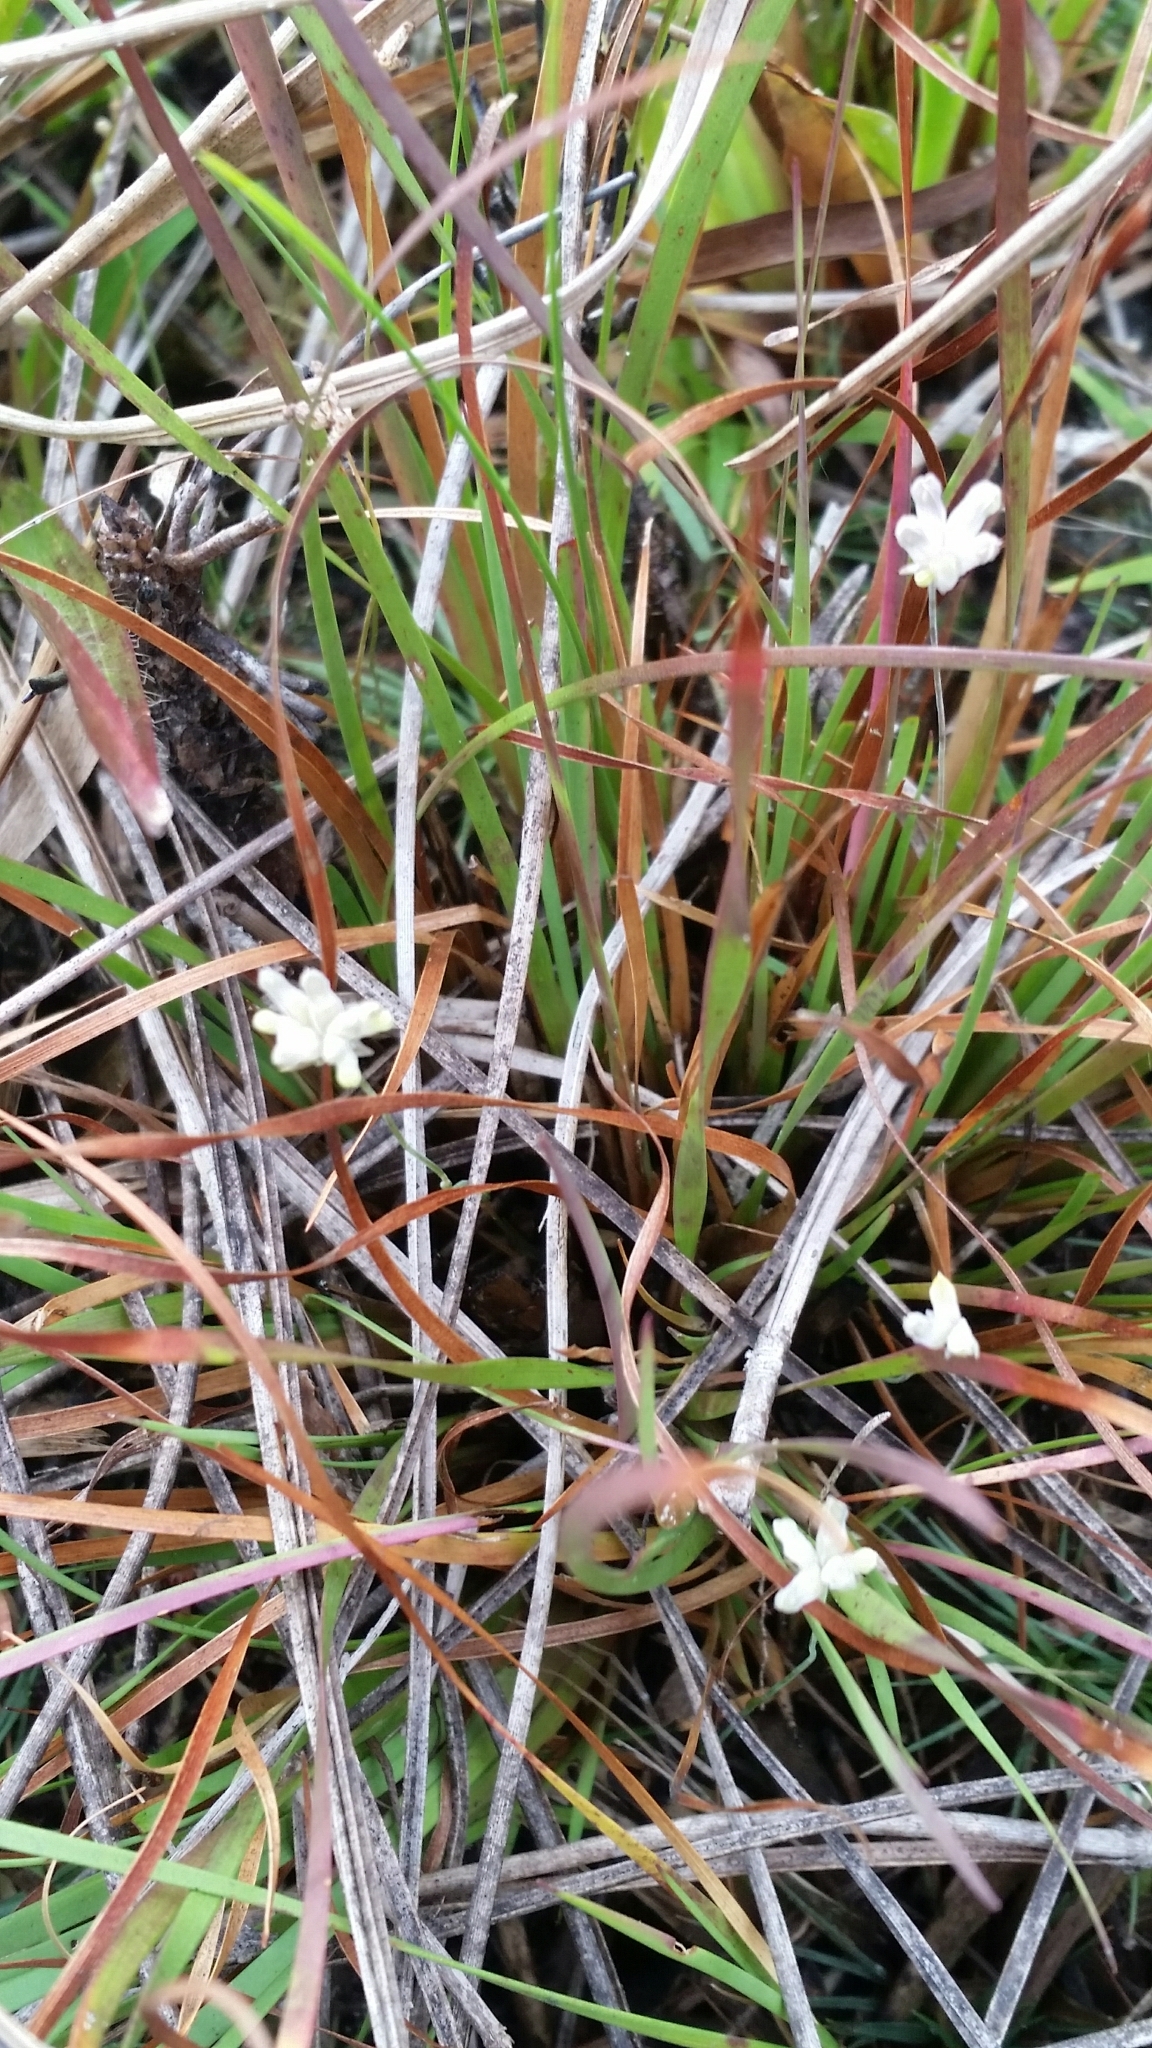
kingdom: Plantae
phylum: Tracheophyta
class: Liliopsida
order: Dioscoreales
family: Burmanniaceae
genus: Burmannia
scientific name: Burmannia capitata
